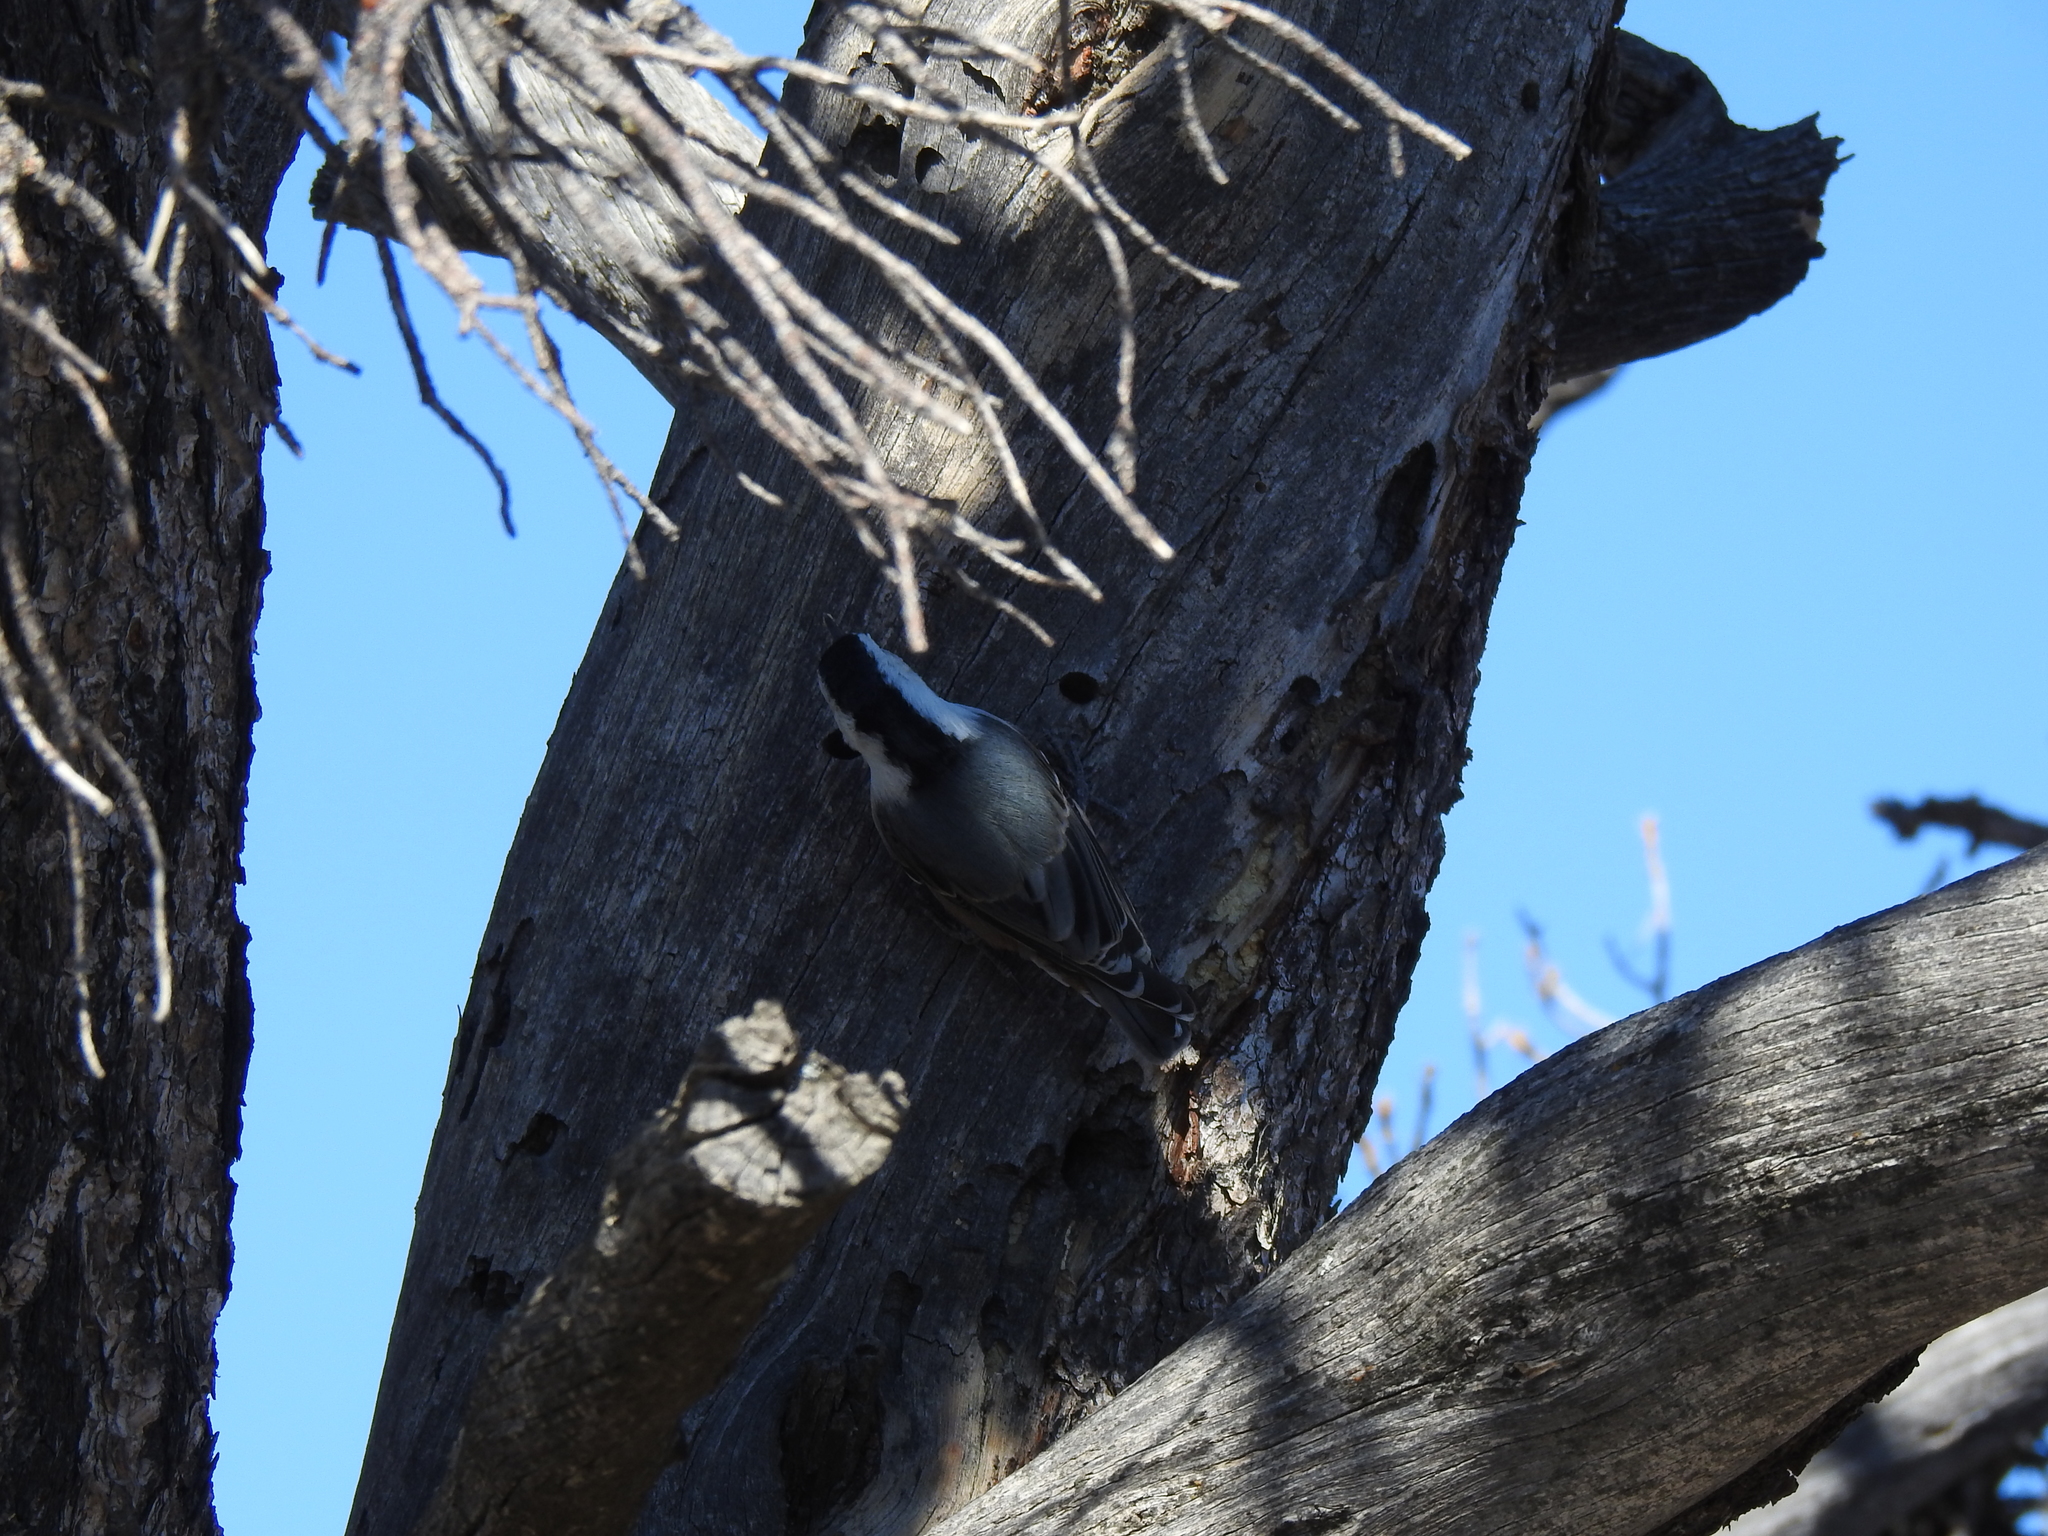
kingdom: Animalia
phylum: Chordata
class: Aves
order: Passeriformes
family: Sittidae
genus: Sitta
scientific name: Sitta carolinensis
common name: White-breasted nuthatch
